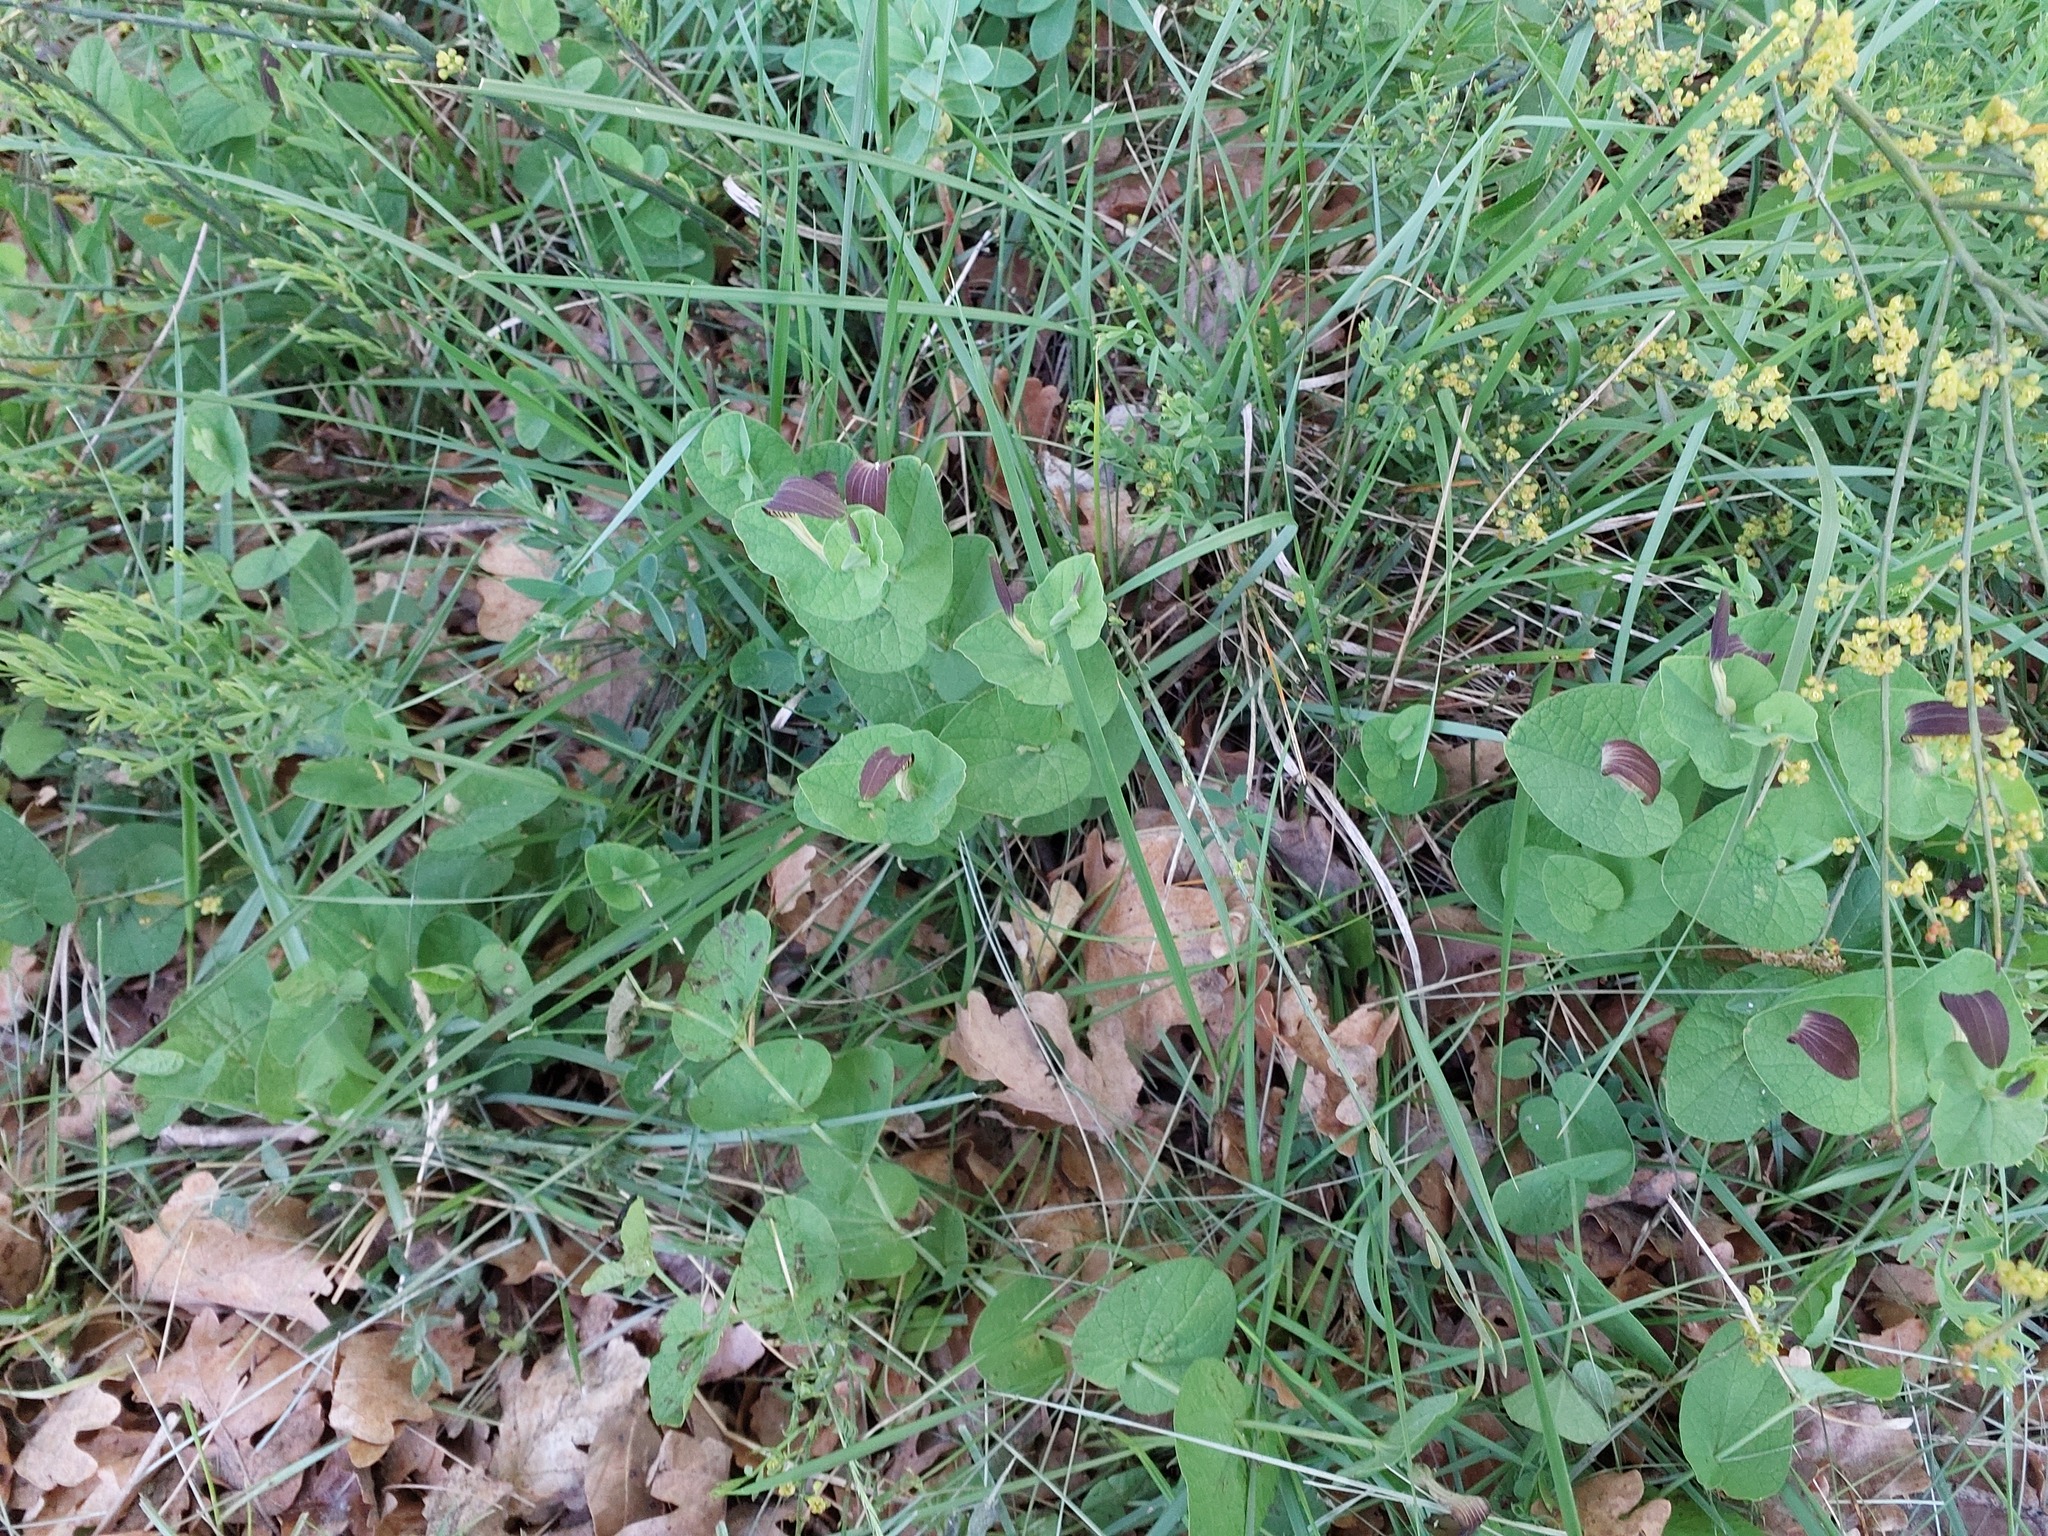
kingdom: Plantae
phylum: Tracheophyta
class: Magnoliopsida
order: Piperales
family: Aristolochiaceae
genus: Aristolochia
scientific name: Aristolochia rotunda
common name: Smearwort
